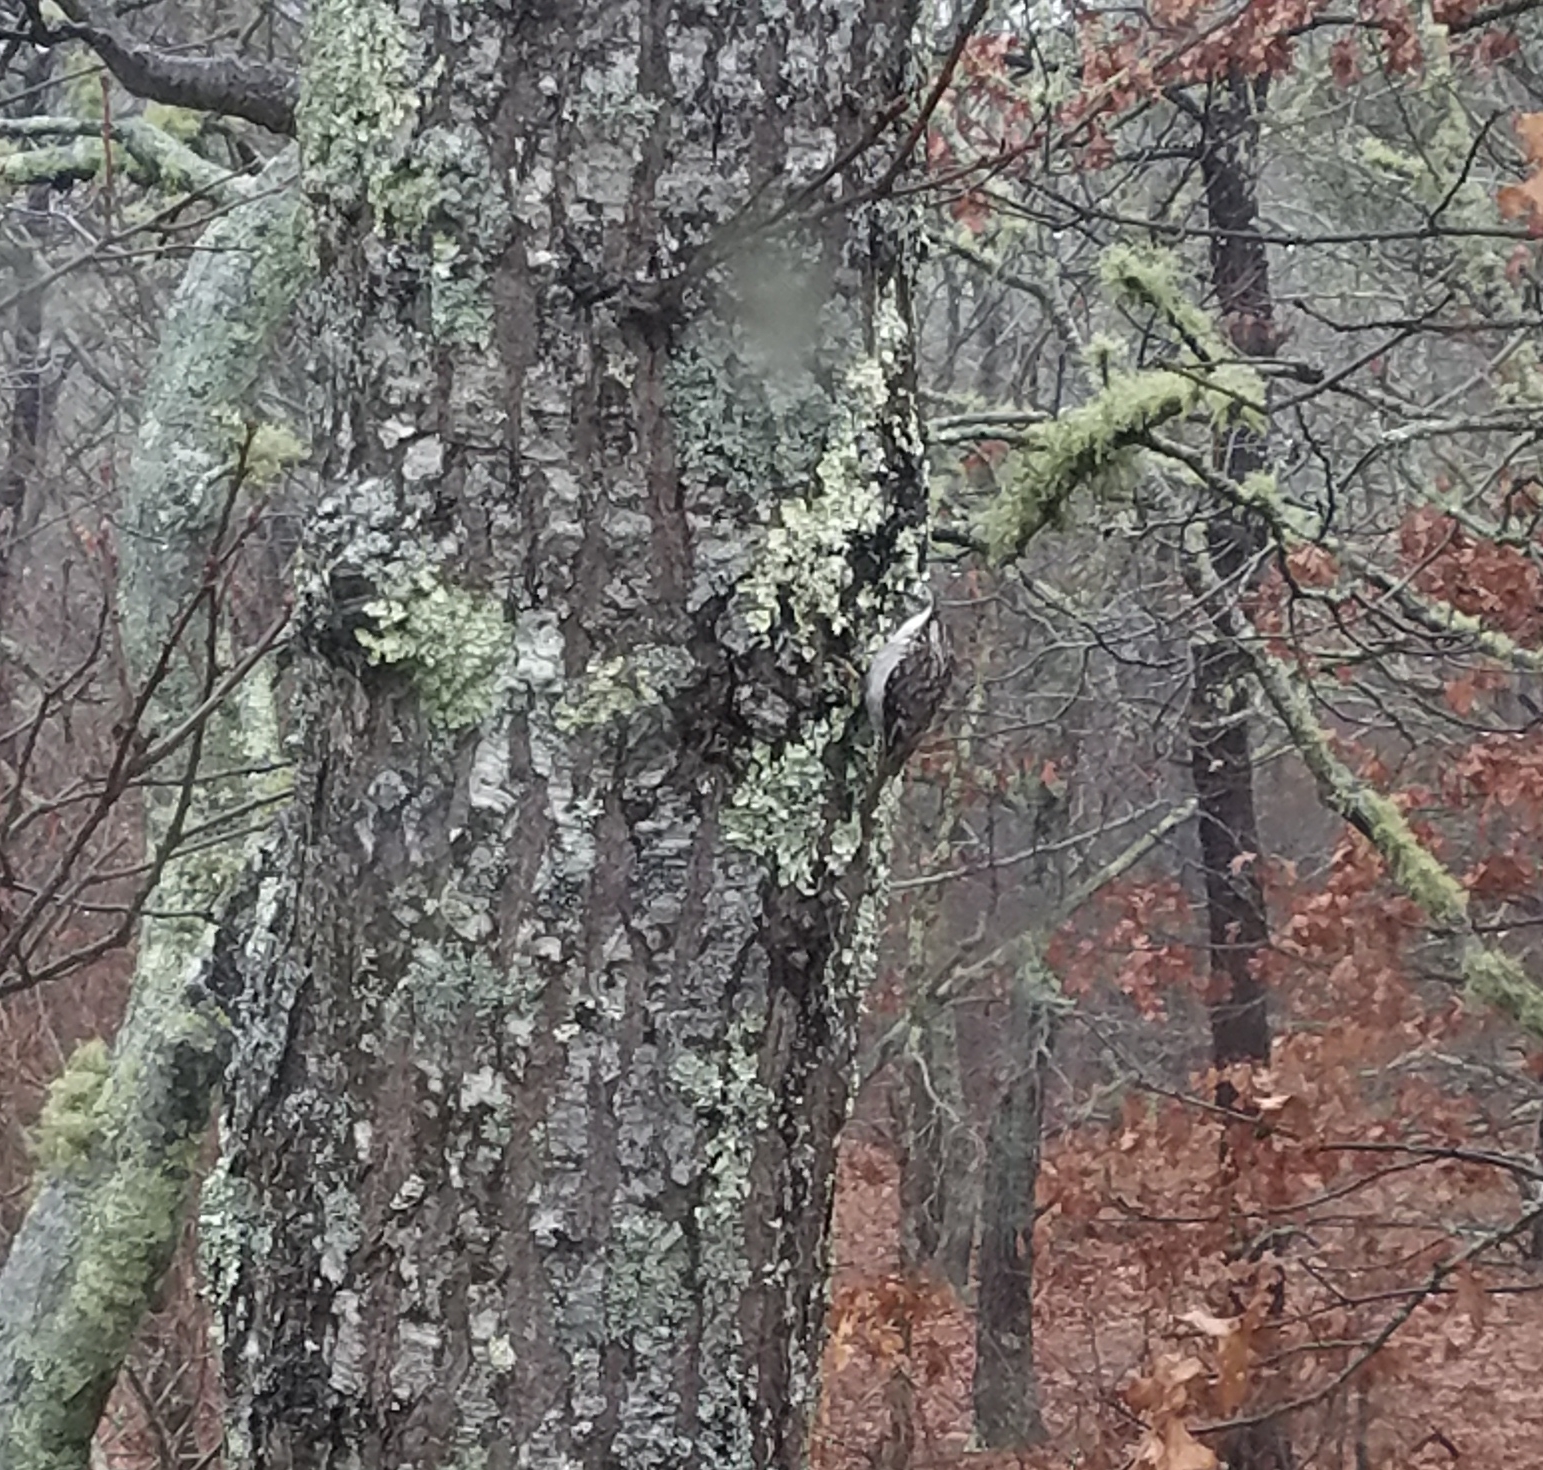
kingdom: Animalia
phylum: Chordata
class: Aves
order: Passeriformes
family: Certhiidae
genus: Certhia
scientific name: Certhia americana
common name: Brown creeper
